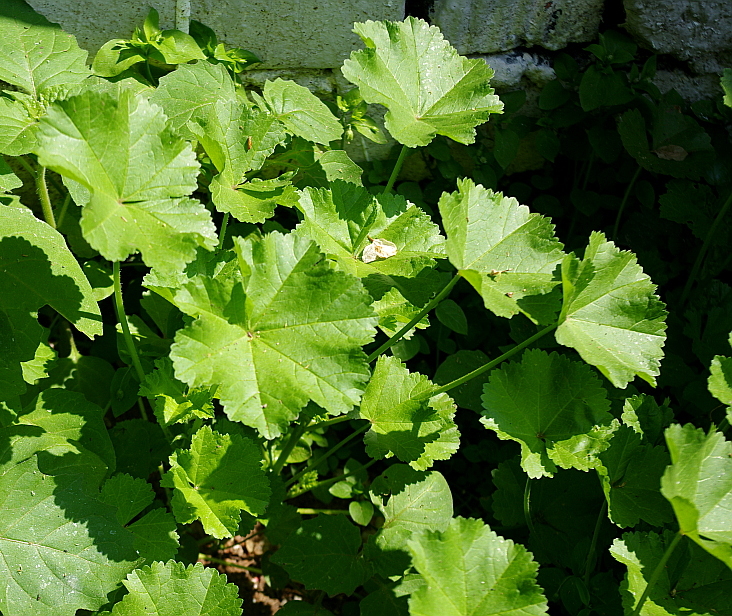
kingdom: Plantae
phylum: Tracheophyta
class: Magnoliopsida
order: Malvales
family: Malvaceae
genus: Malva
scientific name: Malva pusilla
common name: Small mallow
